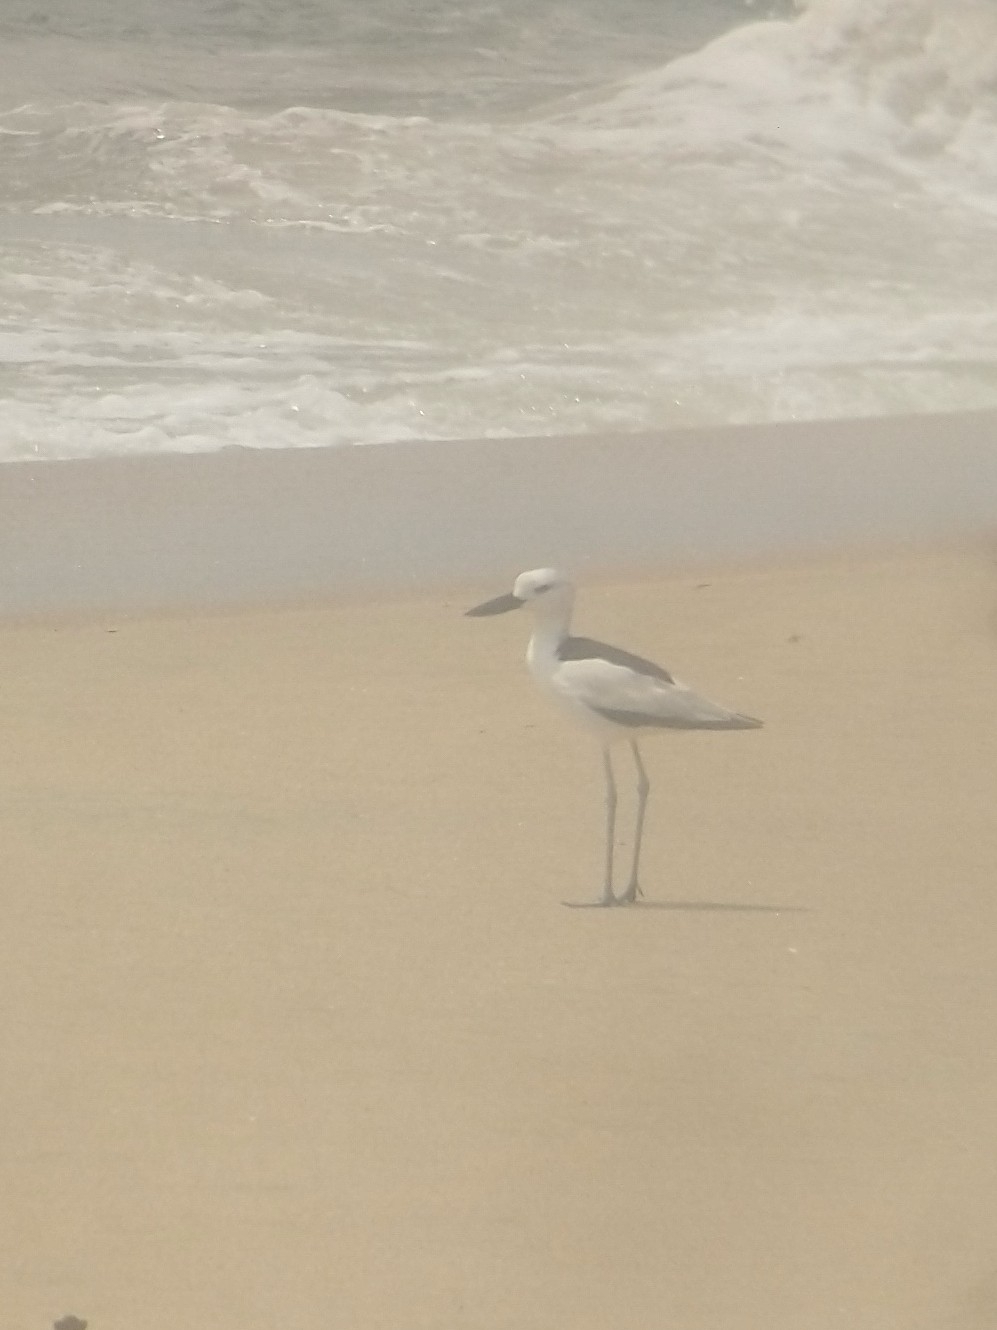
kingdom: Animalia
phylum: Chordata
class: Aves
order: Charadriiformes
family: Dromadidae
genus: Dromas
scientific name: Dromas ardeola
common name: Crab-plover
